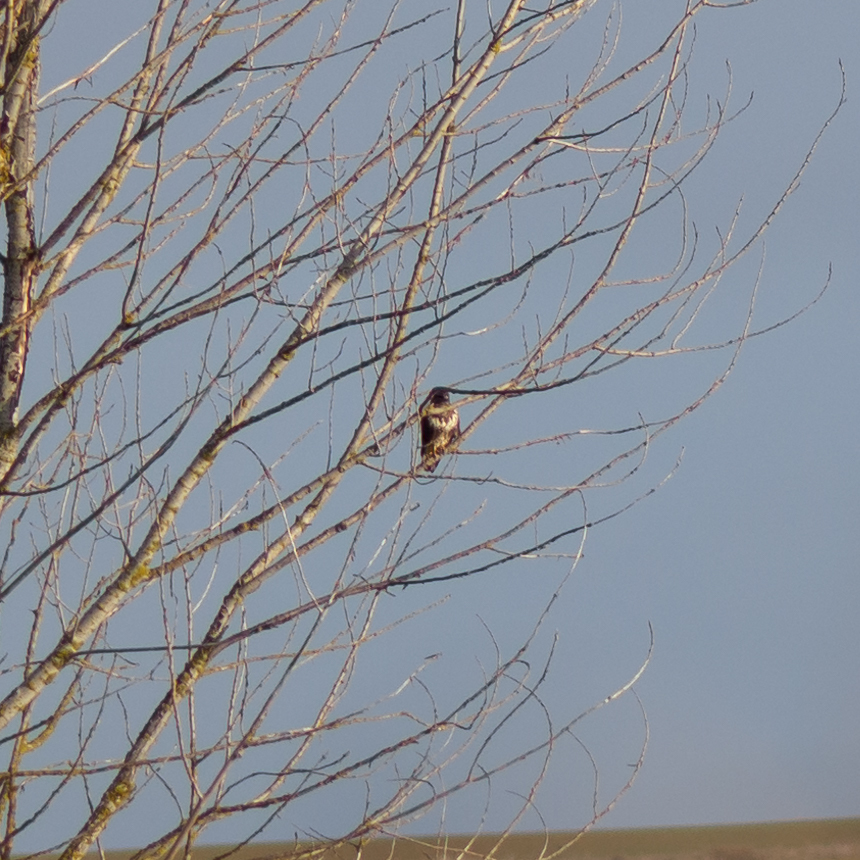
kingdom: Animalia
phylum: Chordata
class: Aves
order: Accipitriformes
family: Accipitridae
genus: Buteo
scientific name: Buteo buteo
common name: Common buzzard
